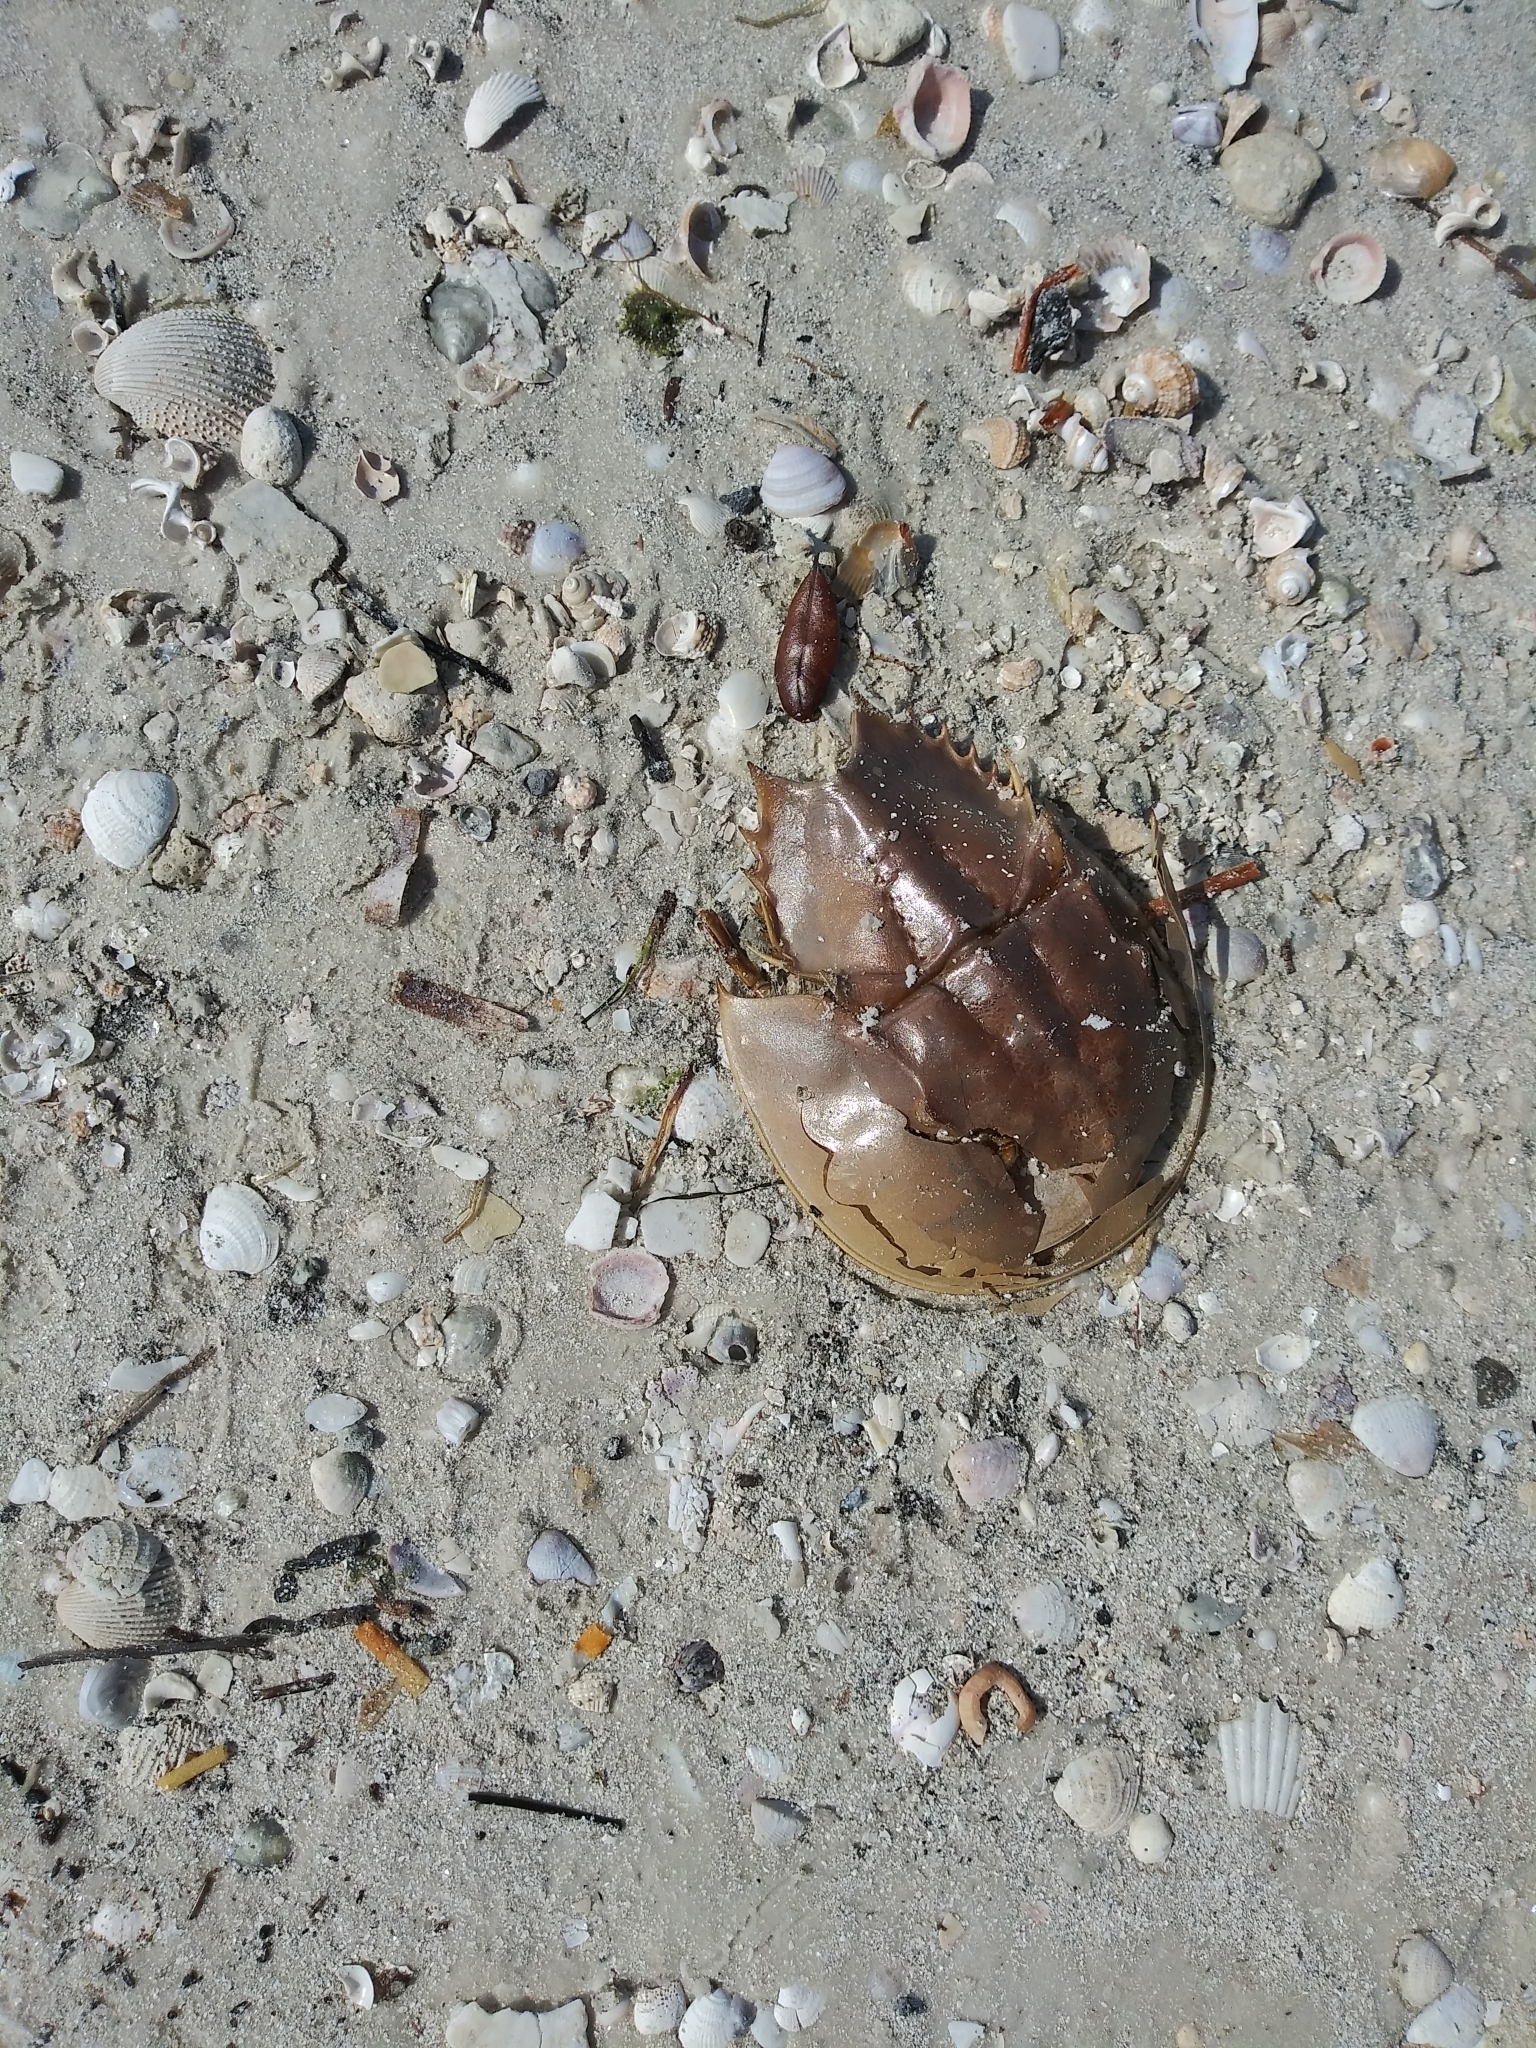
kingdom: Animalia
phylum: Arthropoda
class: Merostomata
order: Xiphosurida
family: Limulidae
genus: Limulus
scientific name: Limulus polyphemus
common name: Horseshoe crab
